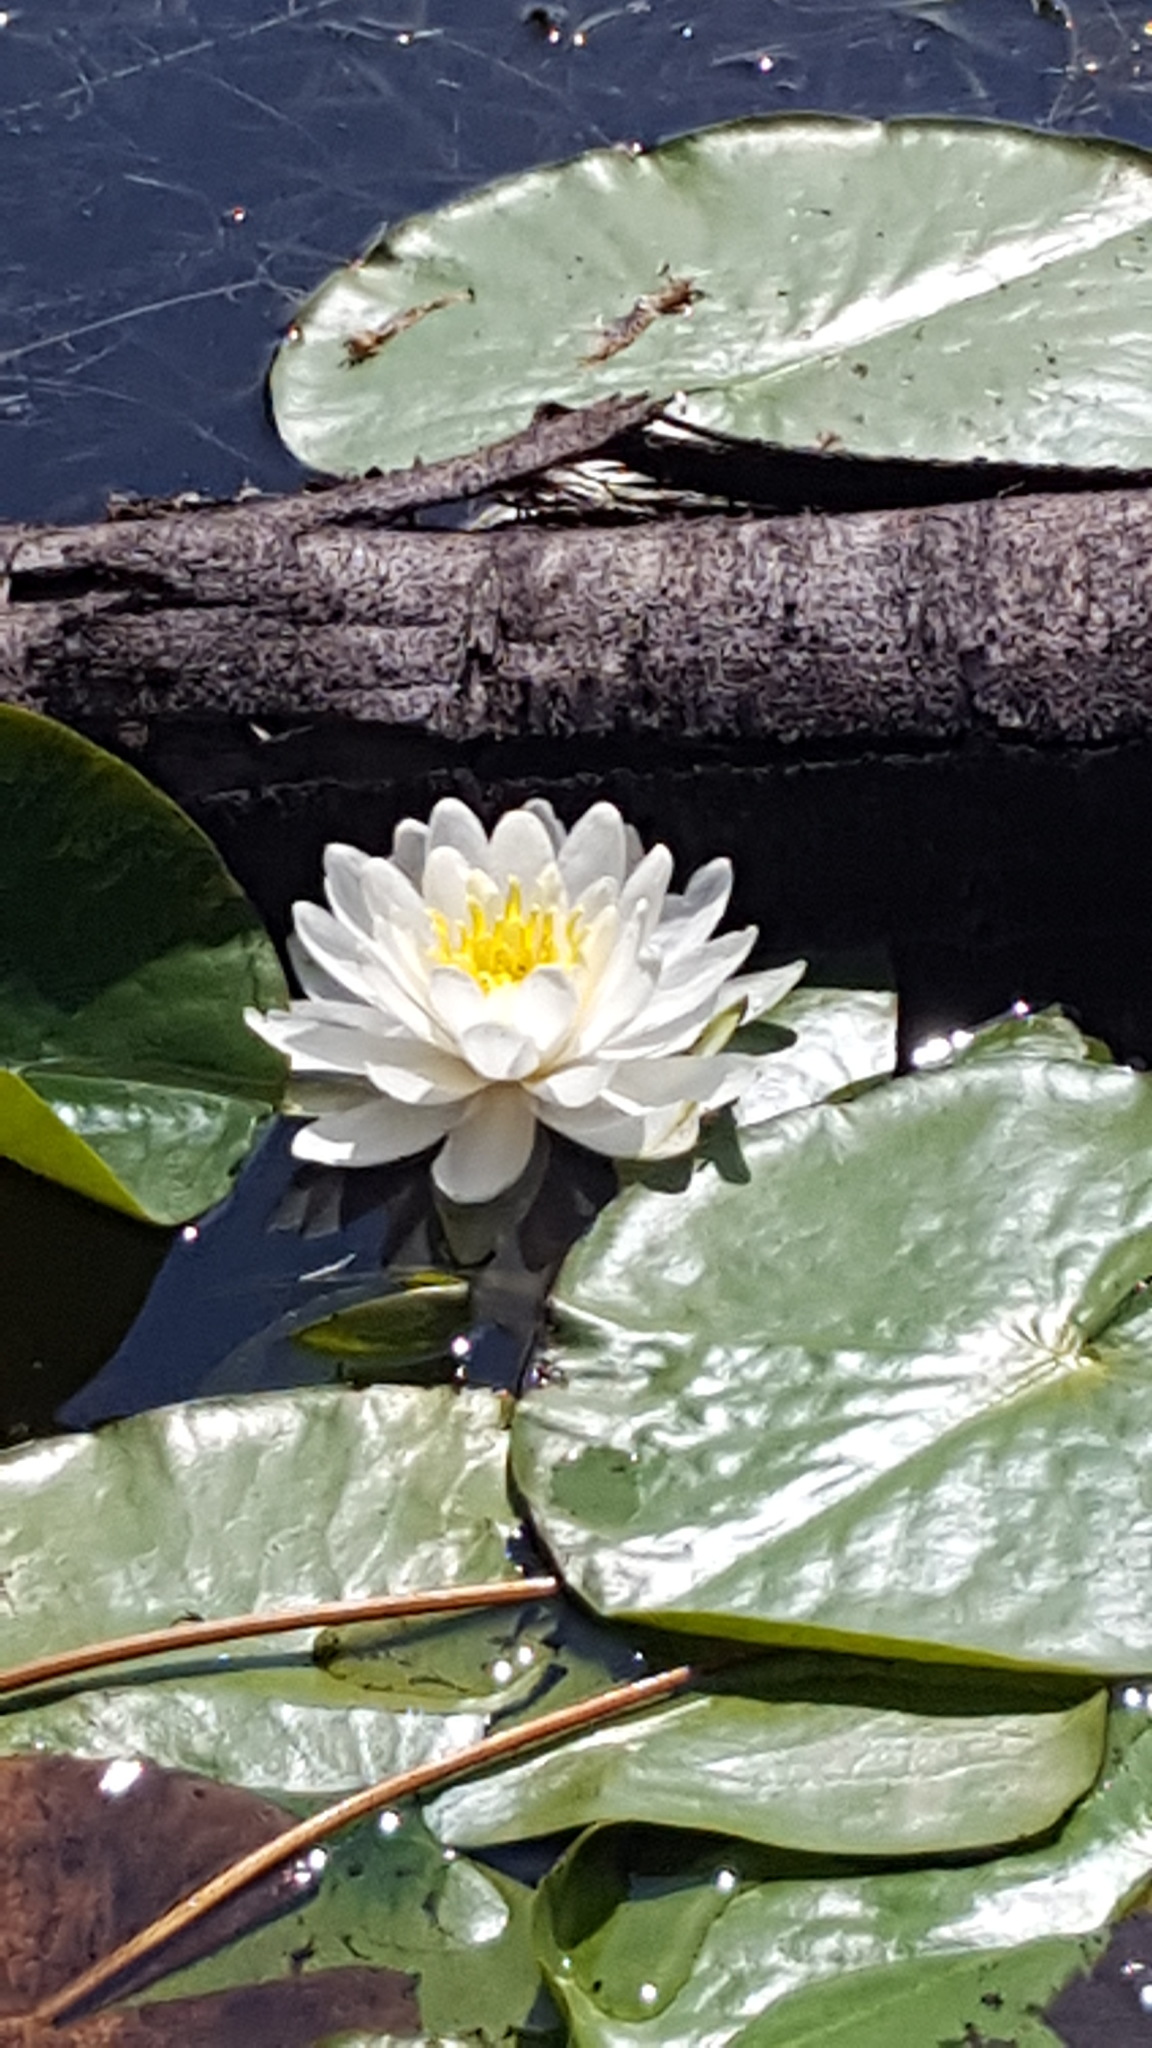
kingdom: Plantae
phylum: Tracheophyta
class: Magnoliopsida
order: Nymphaeales
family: Nymphaeaceae
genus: Nymphaea
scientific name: Nymphaea odorata
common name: Fragrant water-lily
